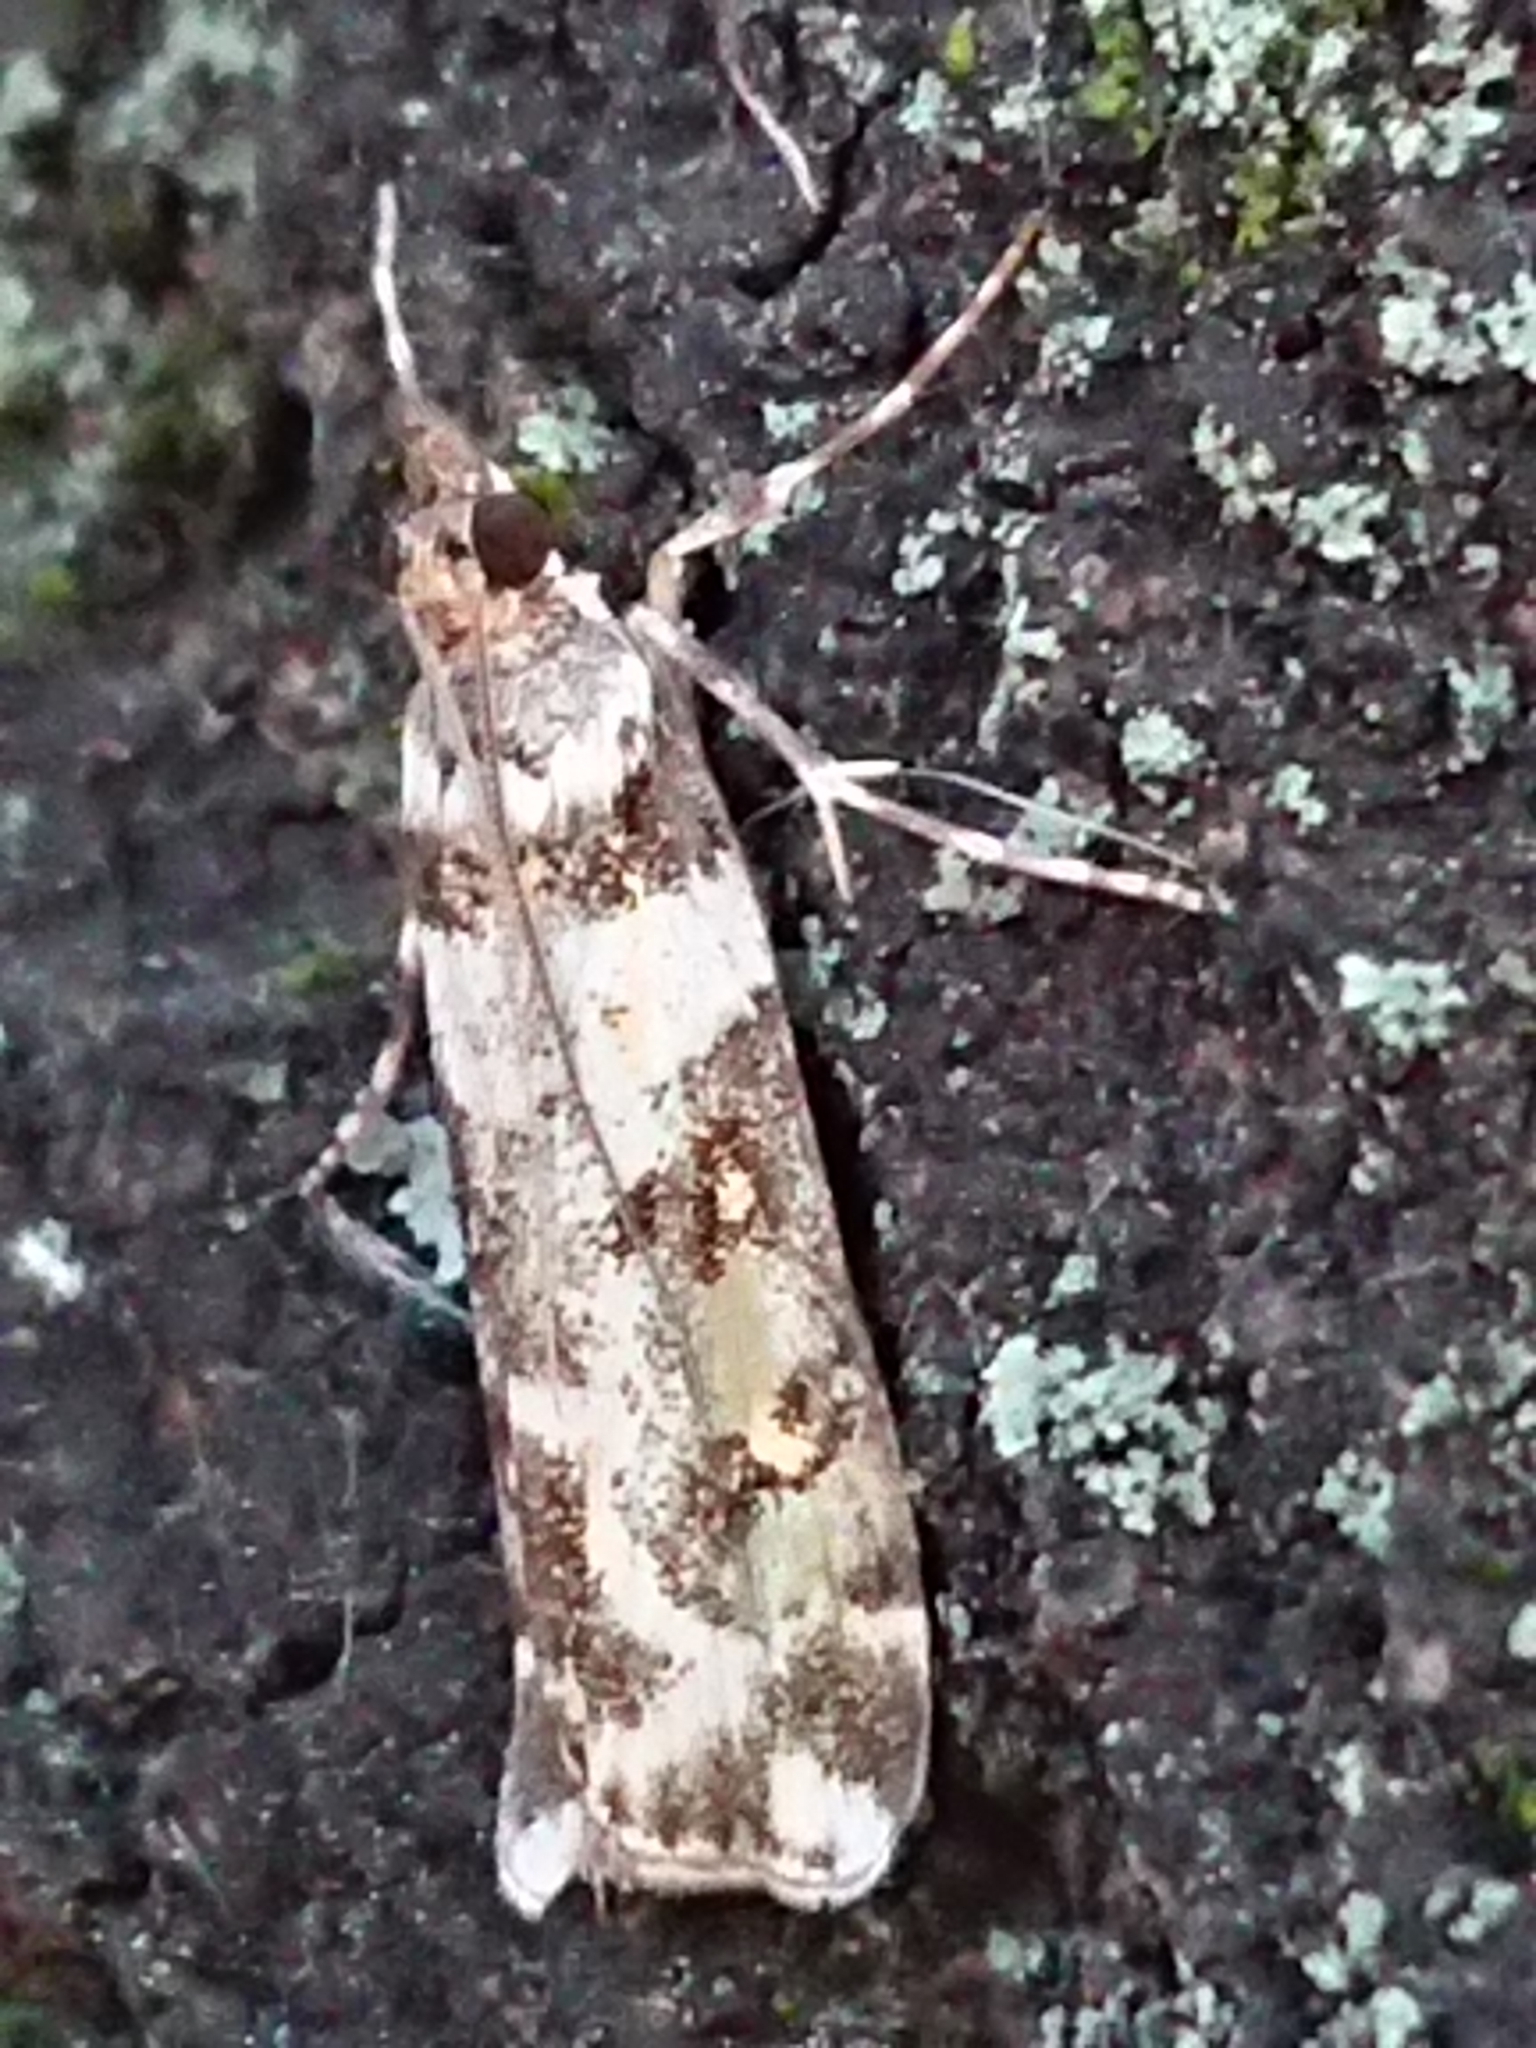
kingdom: Animalia
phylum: Arthropoda
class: Insecta
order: Lepidoptera
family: Crambidae
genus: Eudonia
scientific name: Eudonia diphtheralis
